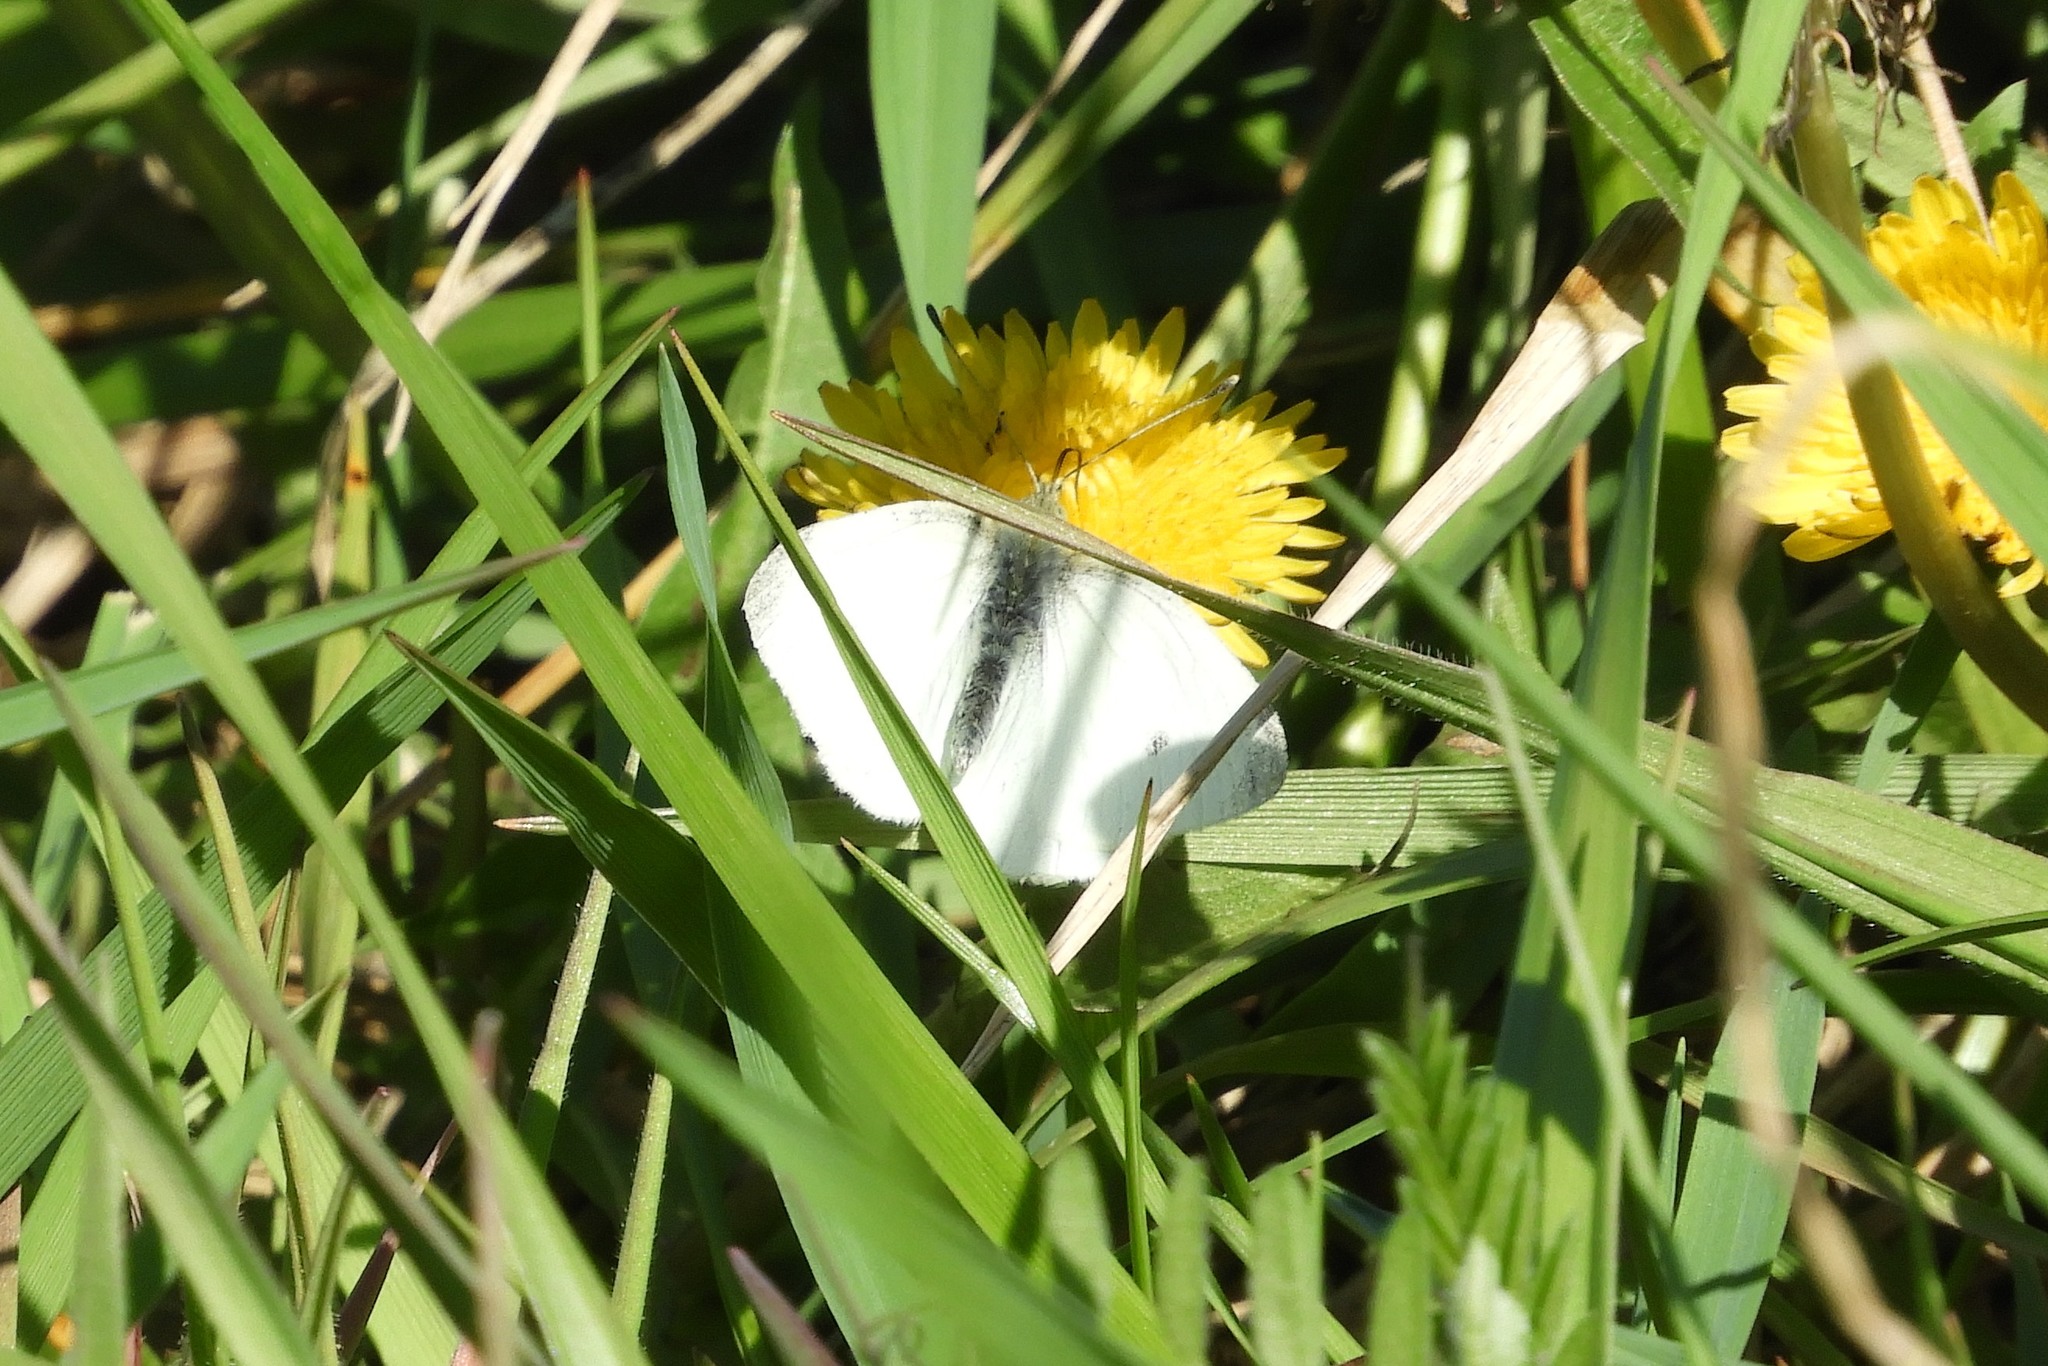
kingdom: Animalia
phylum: Arthropoda
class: Insecta
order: Lepidoptera
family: Pieridae
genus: Pieris
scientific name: Pieris rapae
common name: Small white
